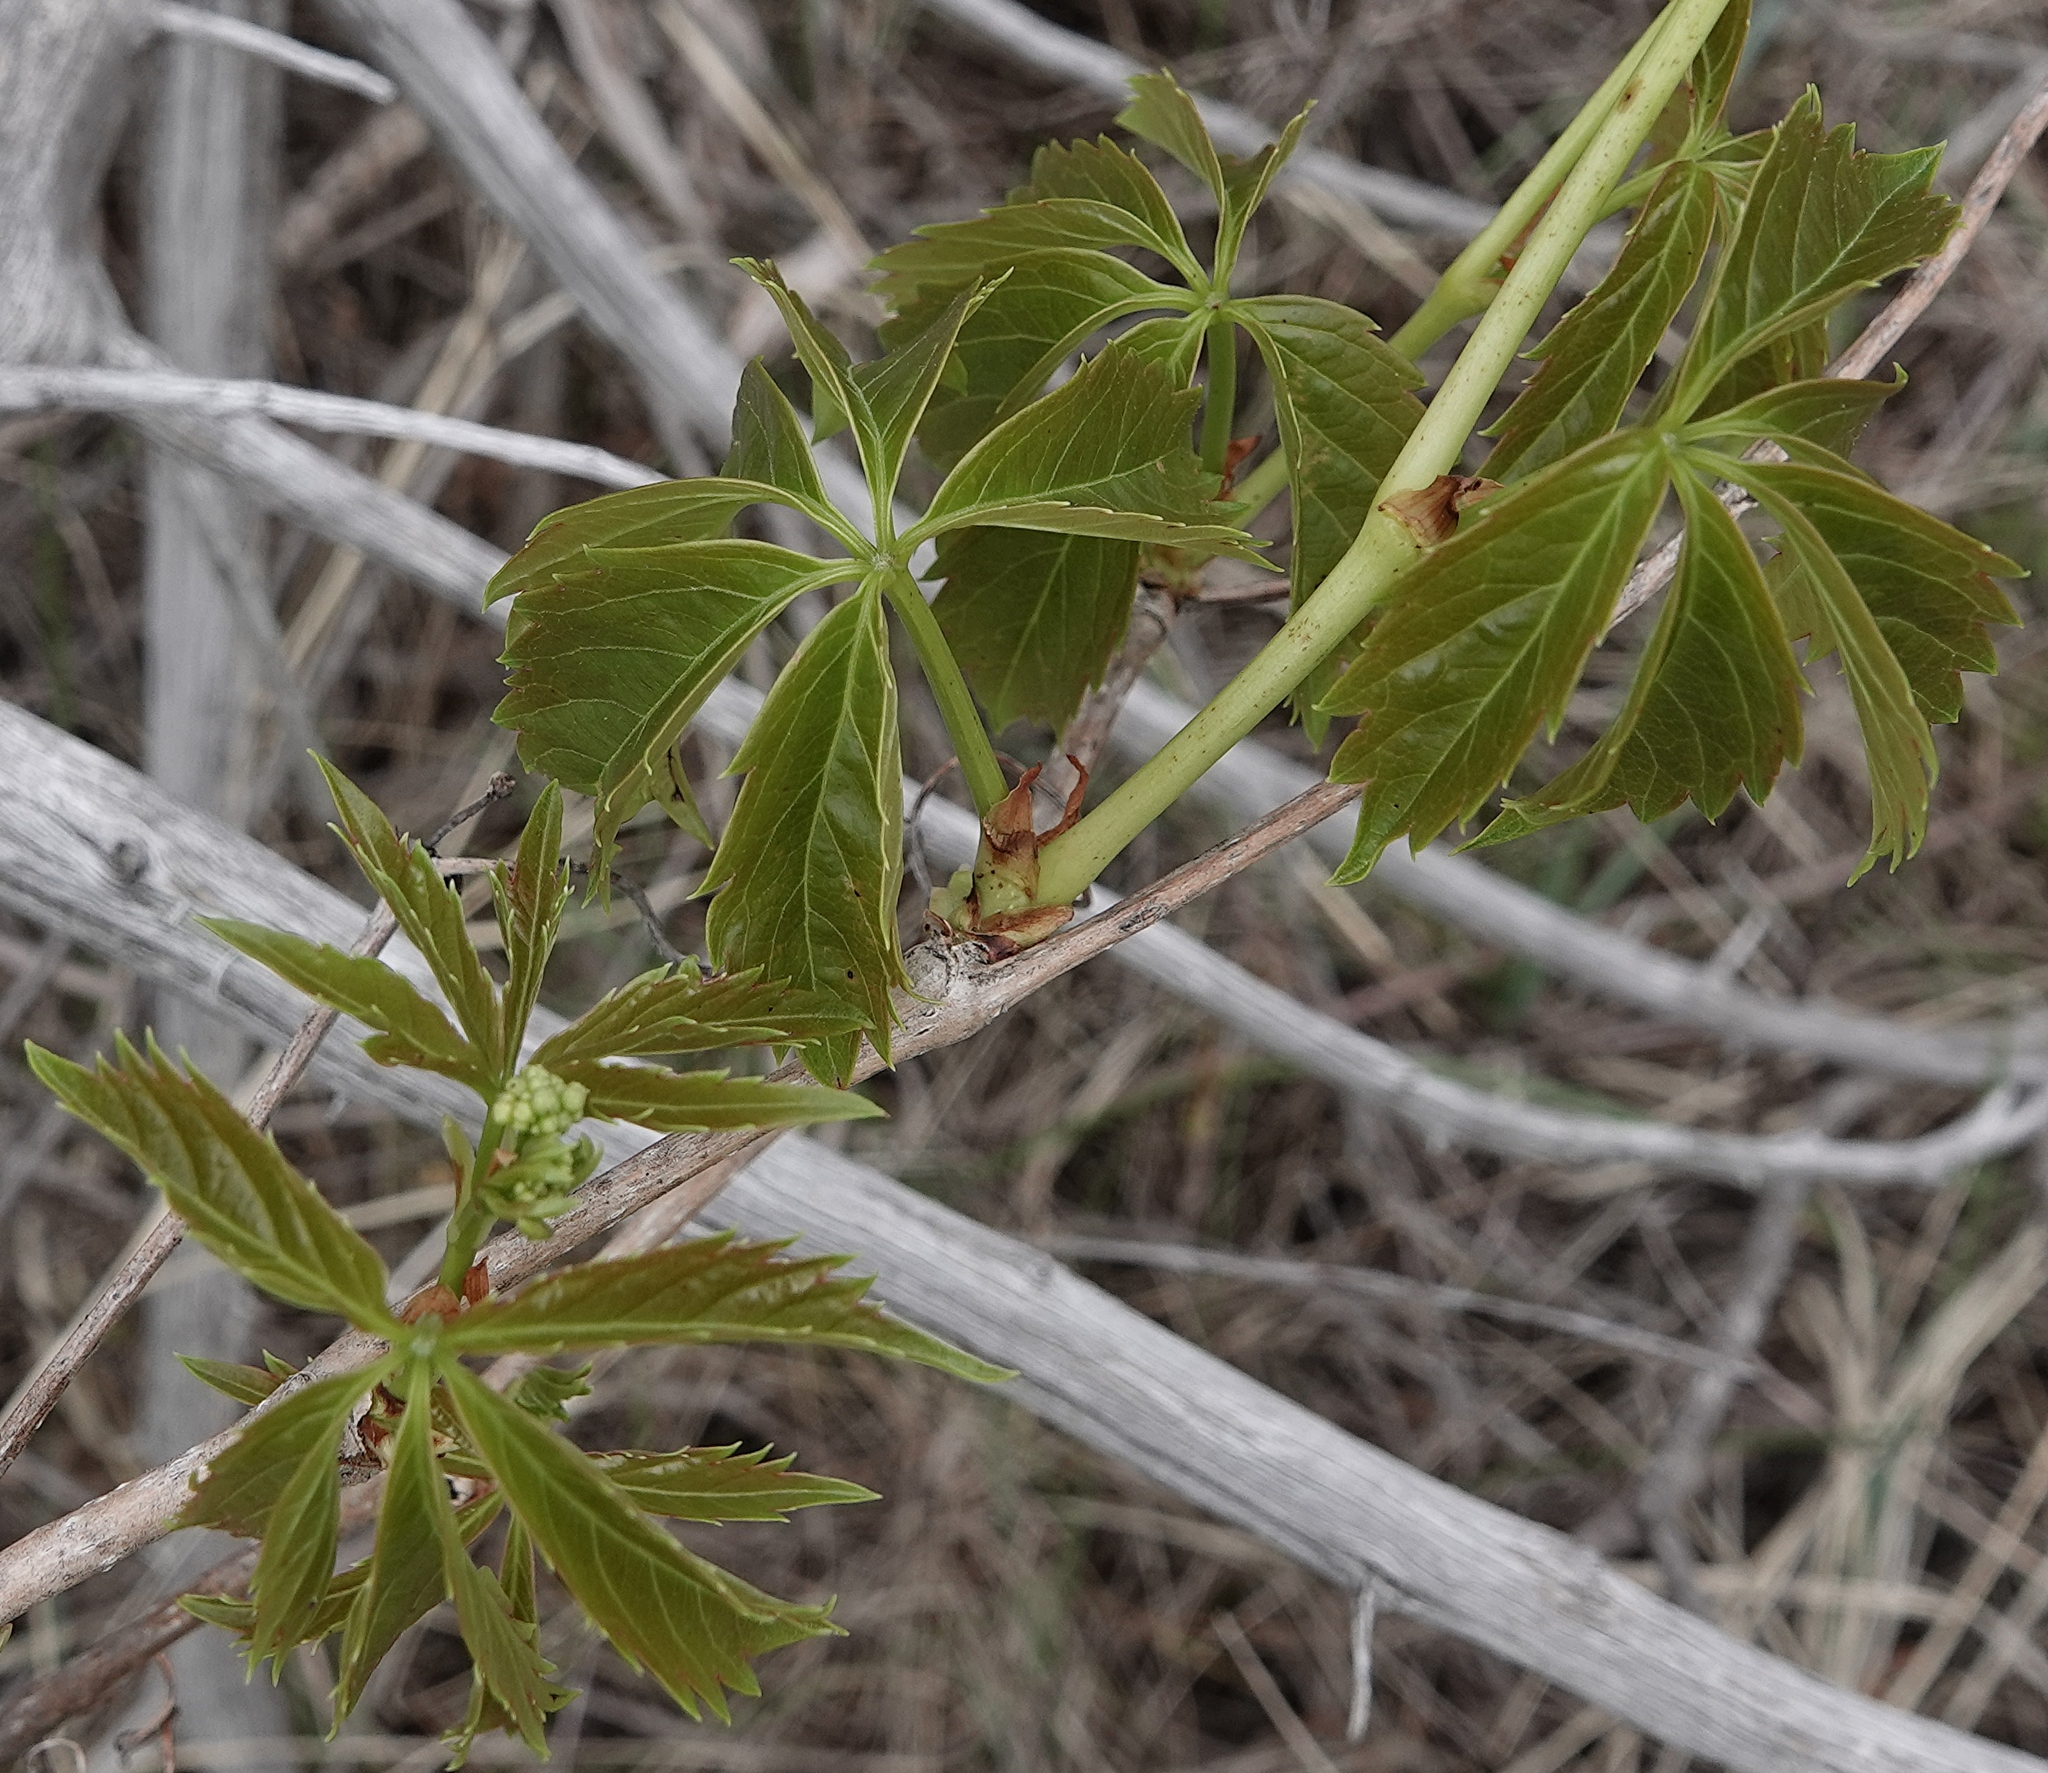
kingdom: Plantae
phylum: Tracheophyta
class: Magnoliopsida
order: Vitales
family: Vitaceae
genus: Parthenocissus
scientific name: Parthenocissus quinquefolia
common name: Virginia-creeper
